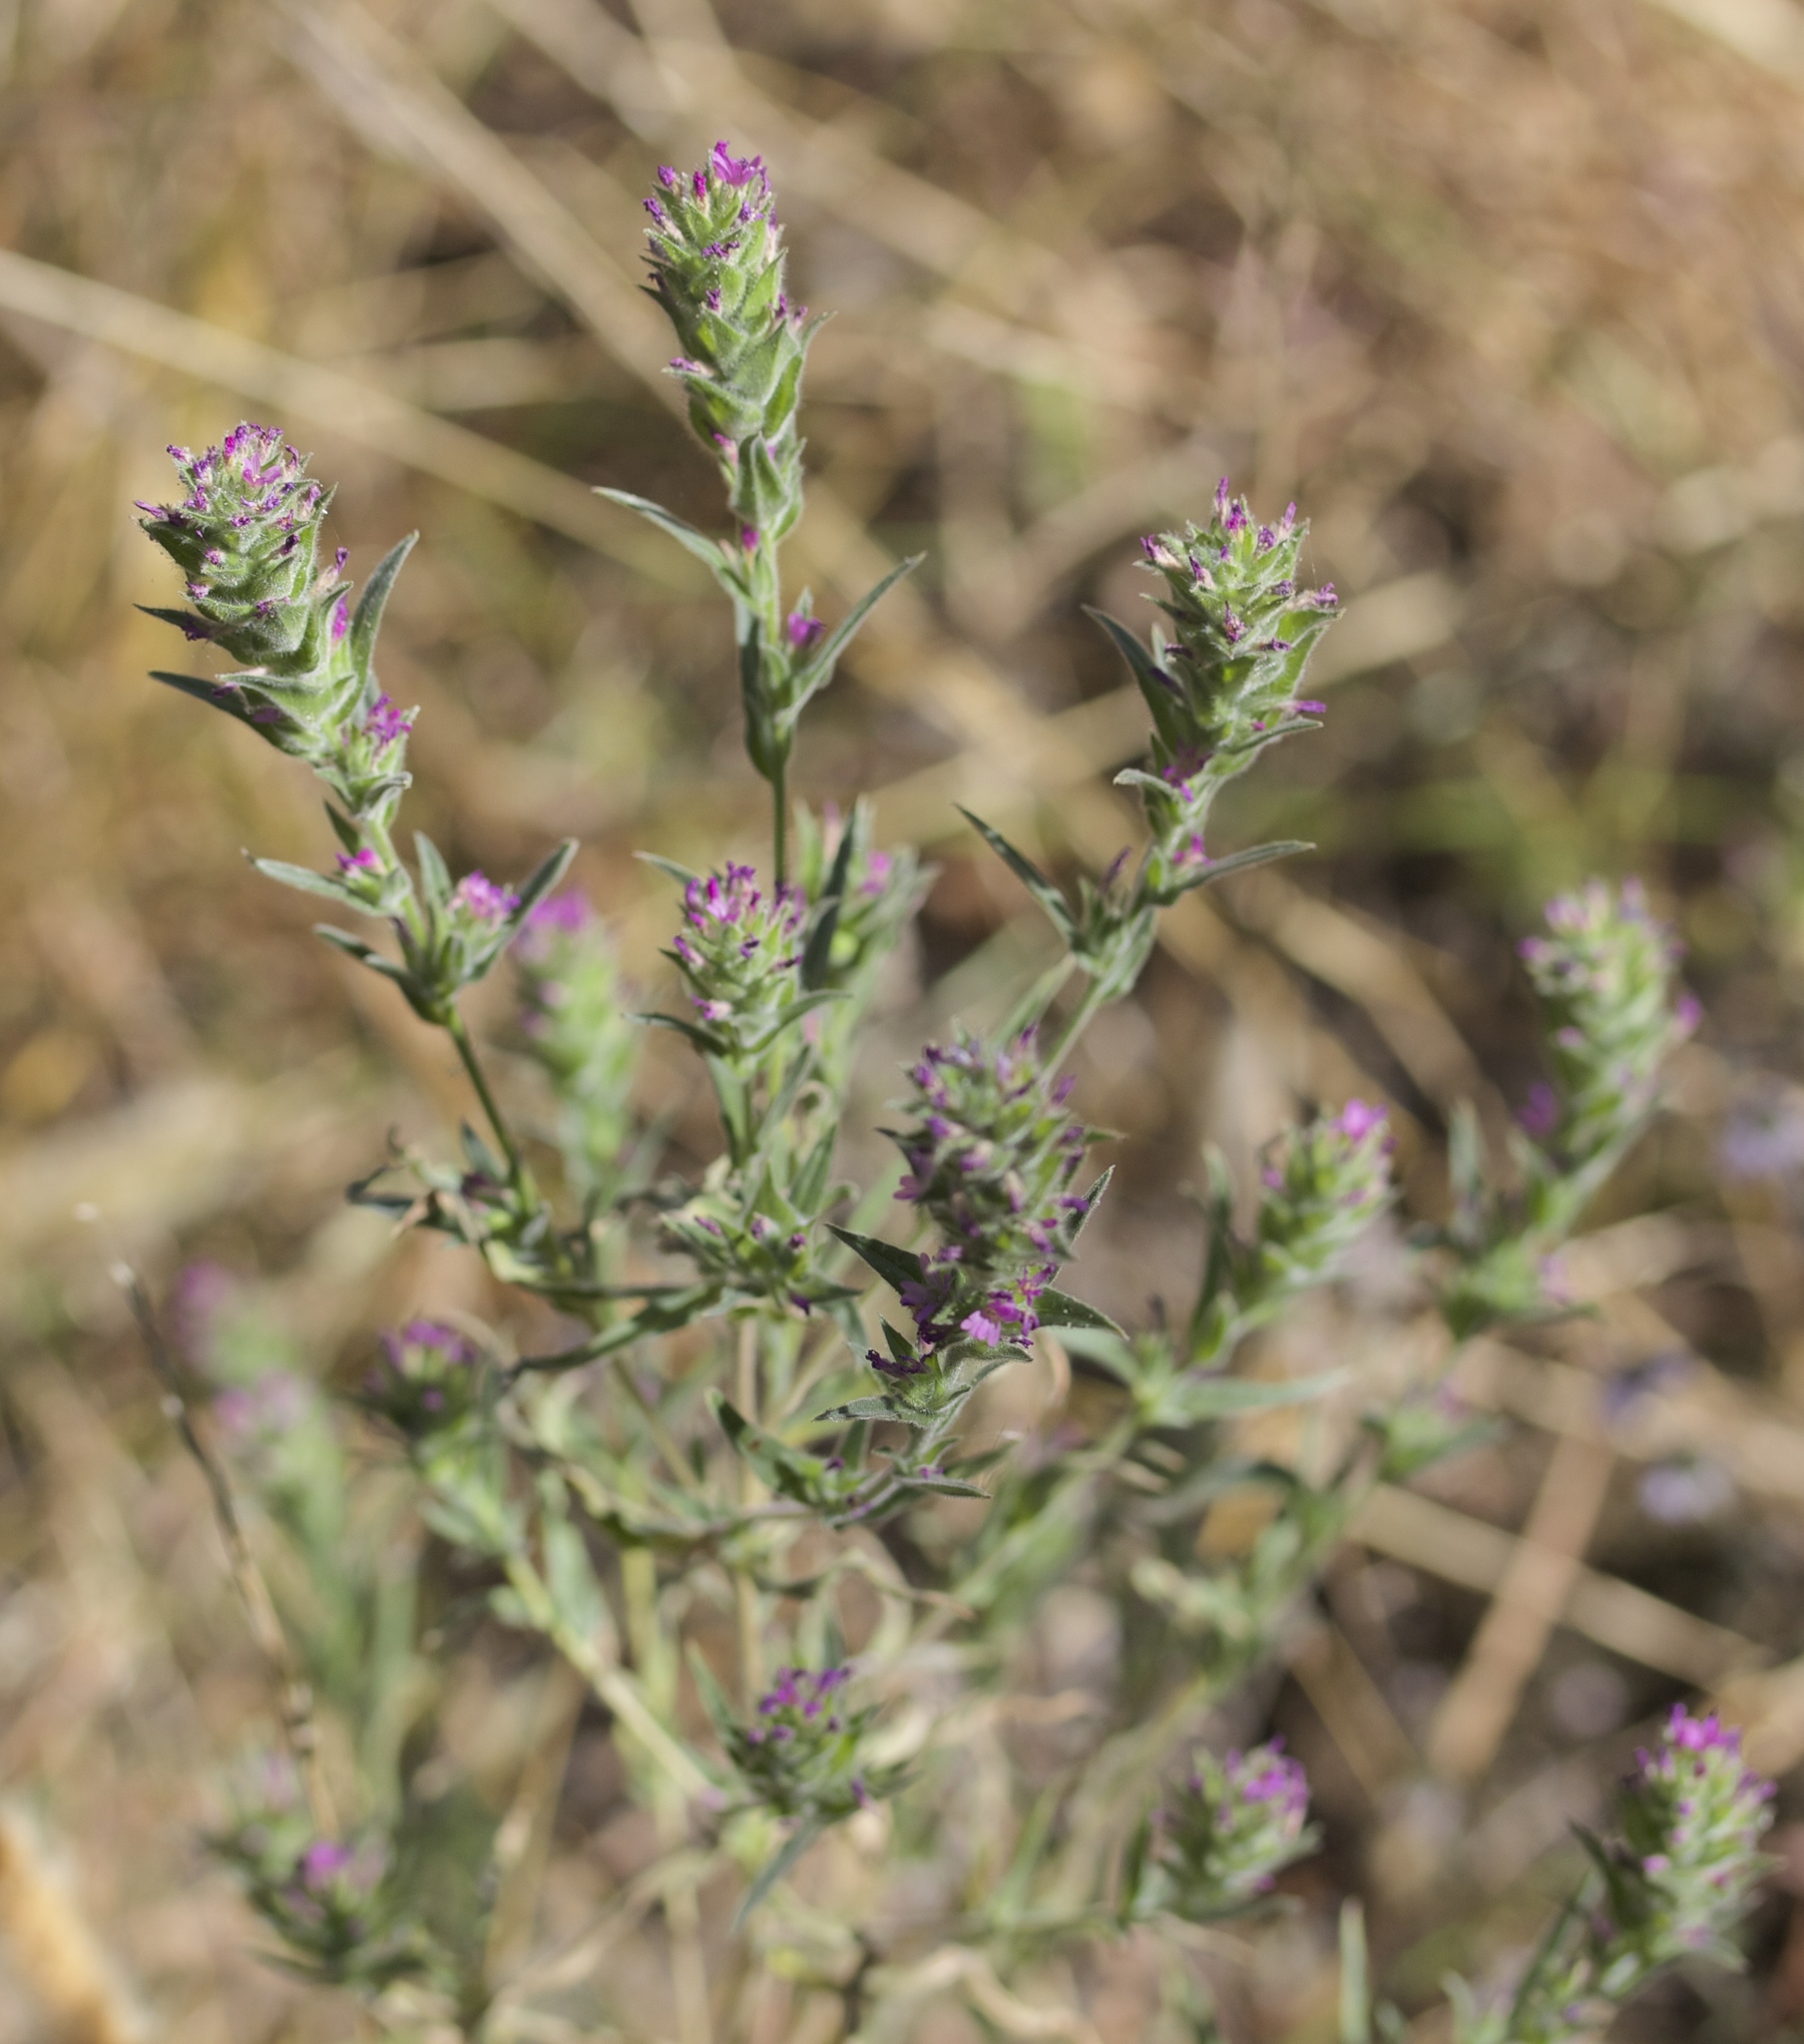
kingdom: Plantae
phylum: Tracheophyta
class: Magnoliopsida
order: Myrtales
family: Onagraceae
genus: Epilobium
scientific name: Epilobium densiflorum
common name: Dense spike-primrose
